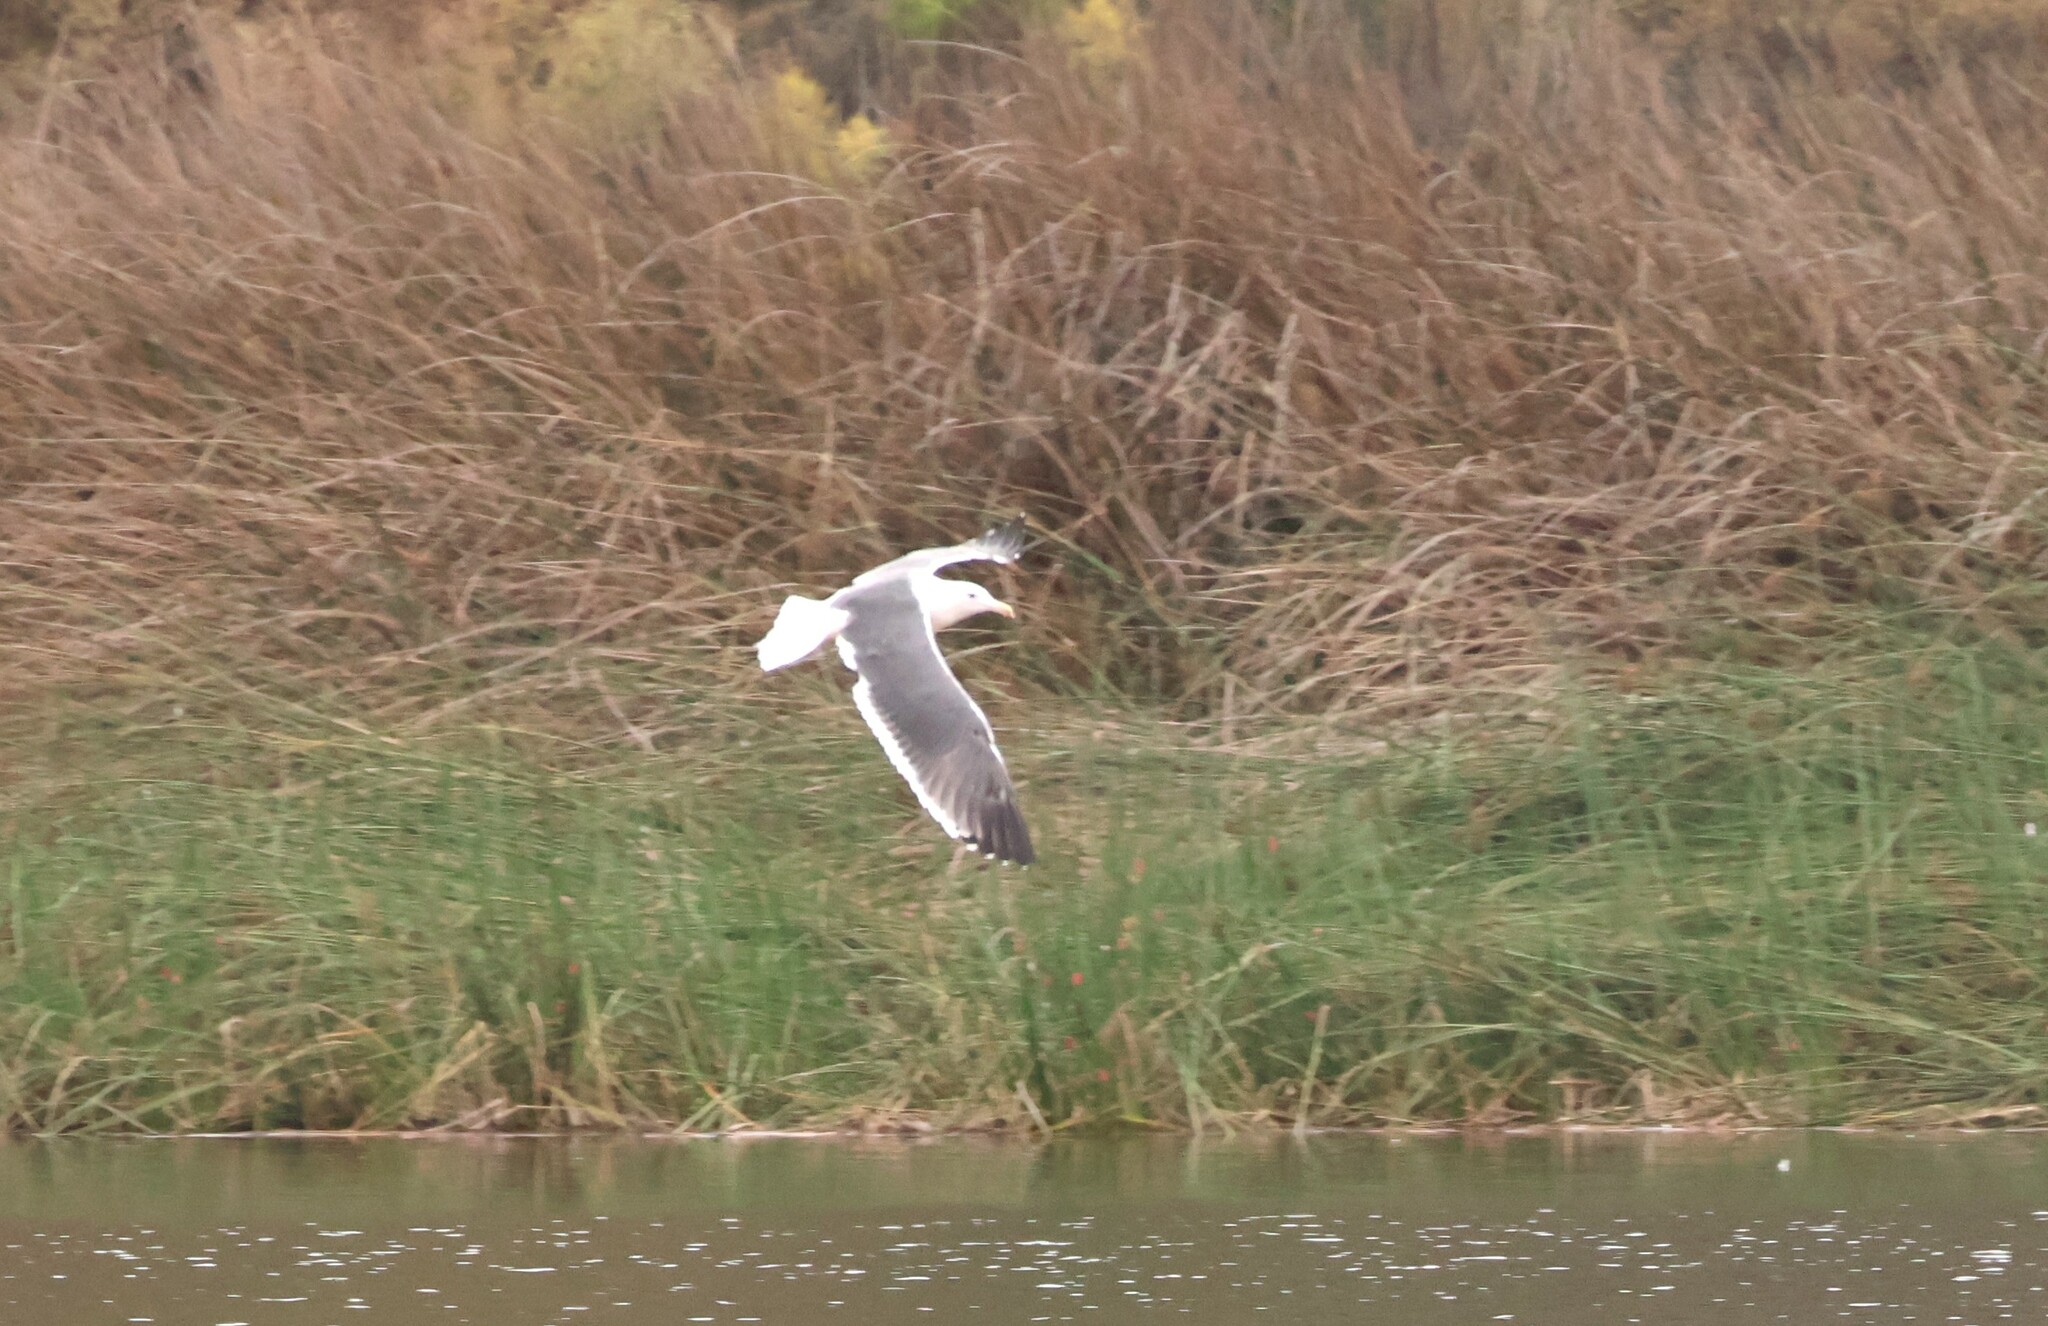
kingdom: Animalia
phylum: Chordata
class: Aves
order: Charadriiformes
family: Laridae
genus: Larus
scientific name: Larus occidentalis
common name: Western gull
